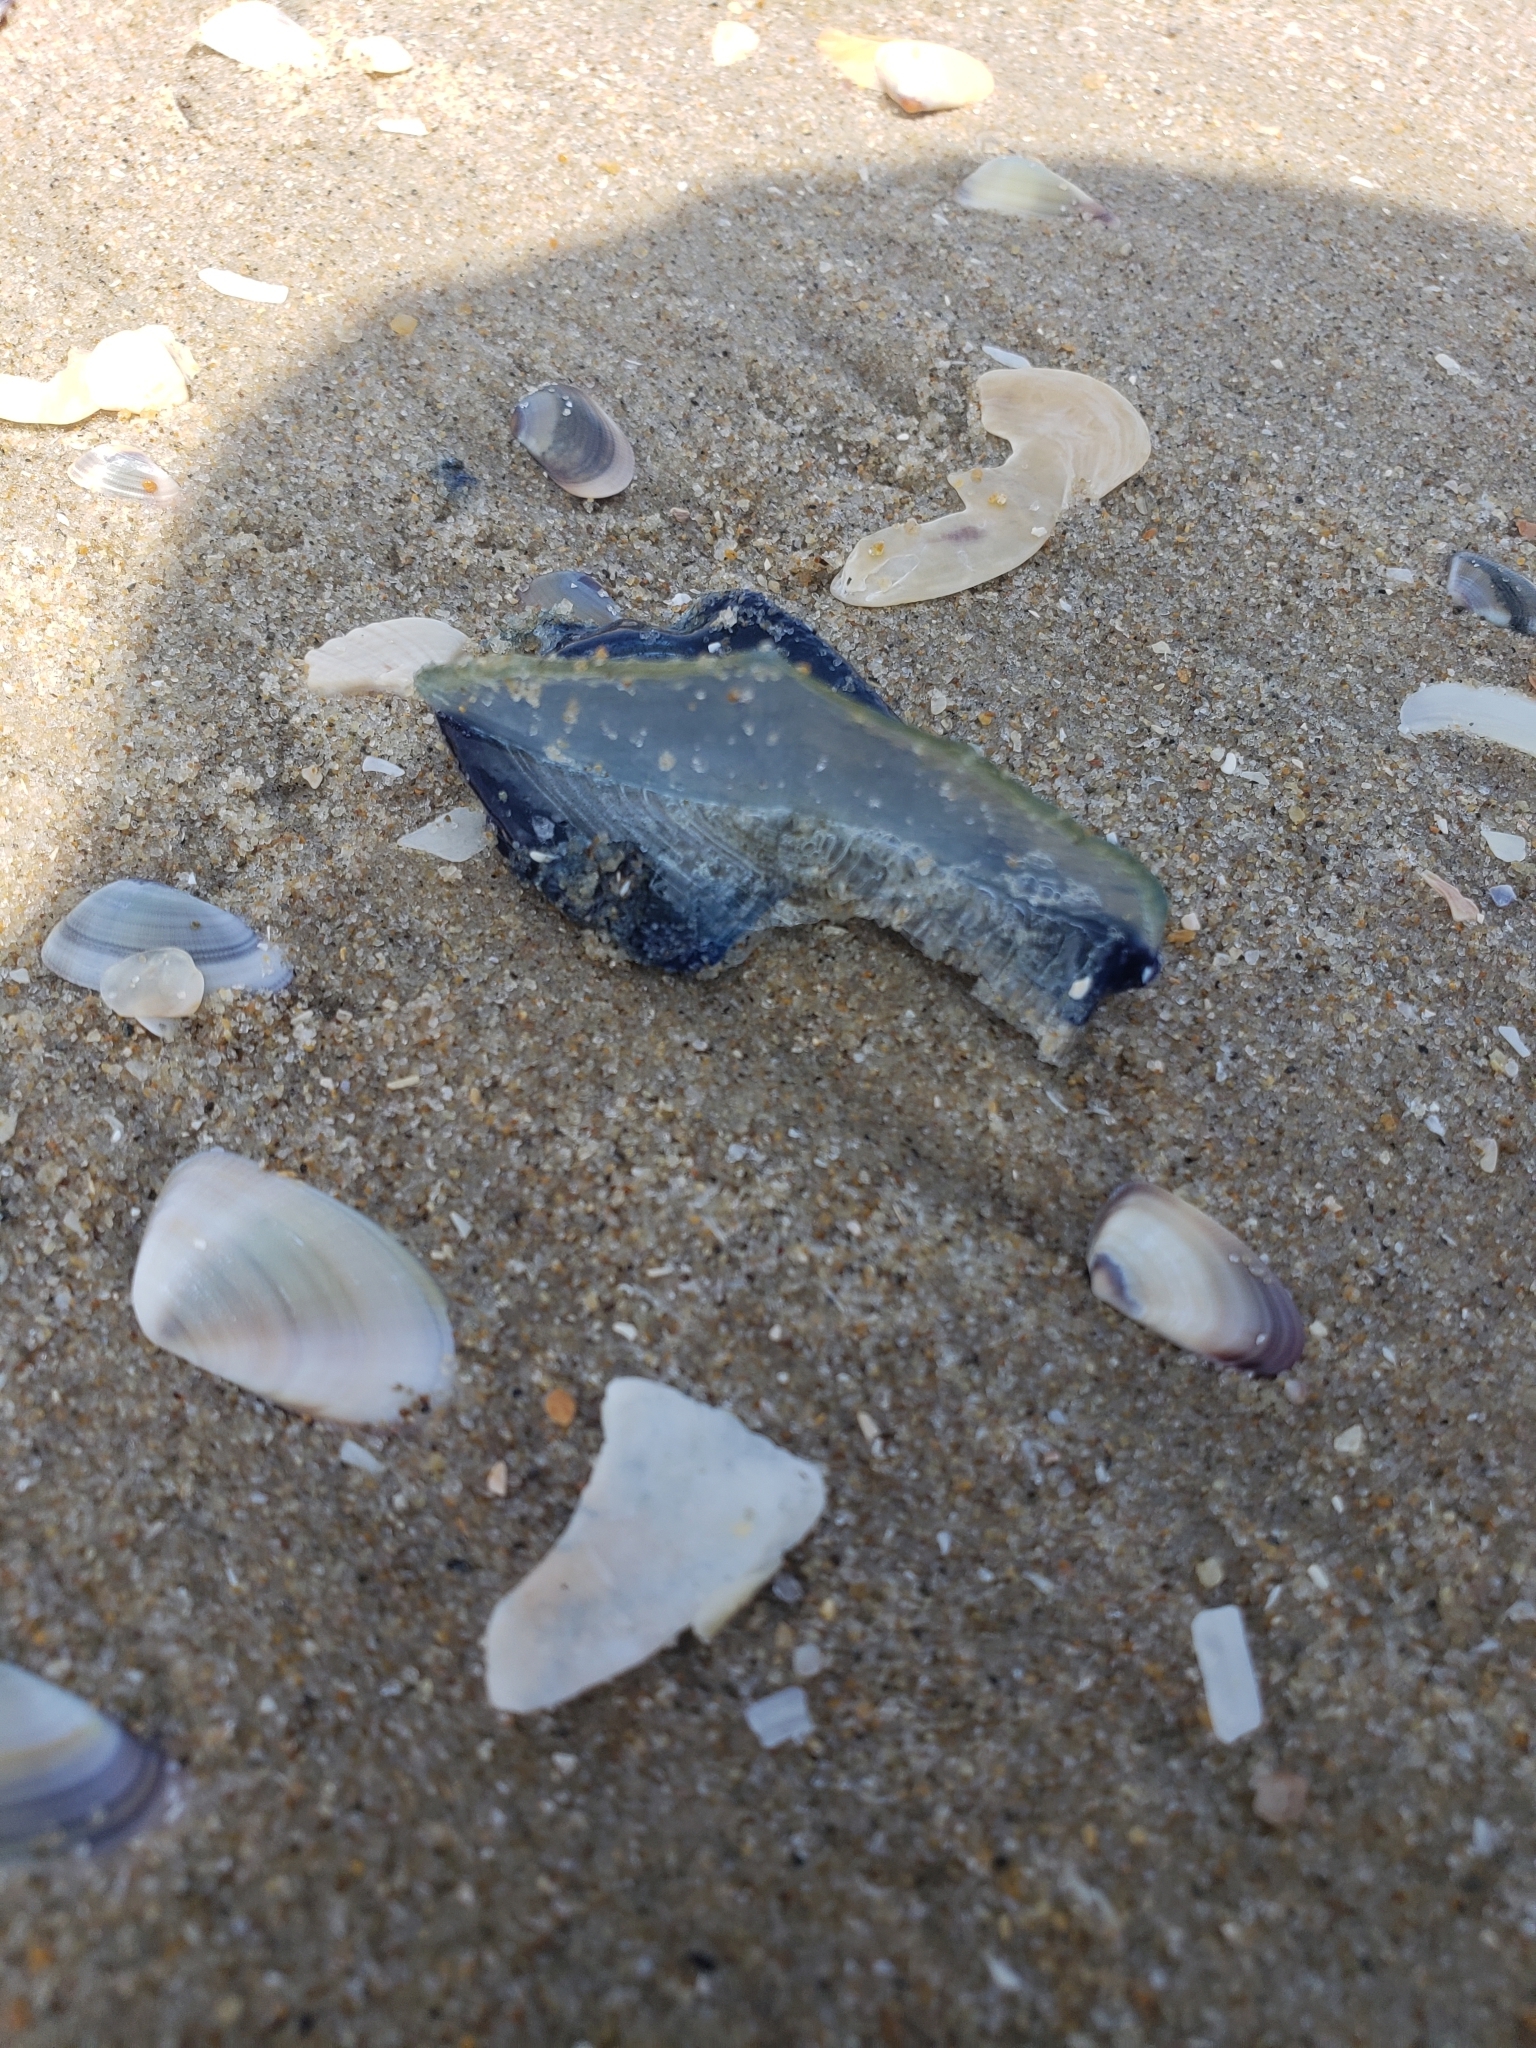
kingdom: Animalia
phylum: Cnidaria
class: Hydrozoa
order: Anthoathecata
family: Porpitidae
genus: Velella
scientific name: Velella velella
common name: By-the-wind-sailor
